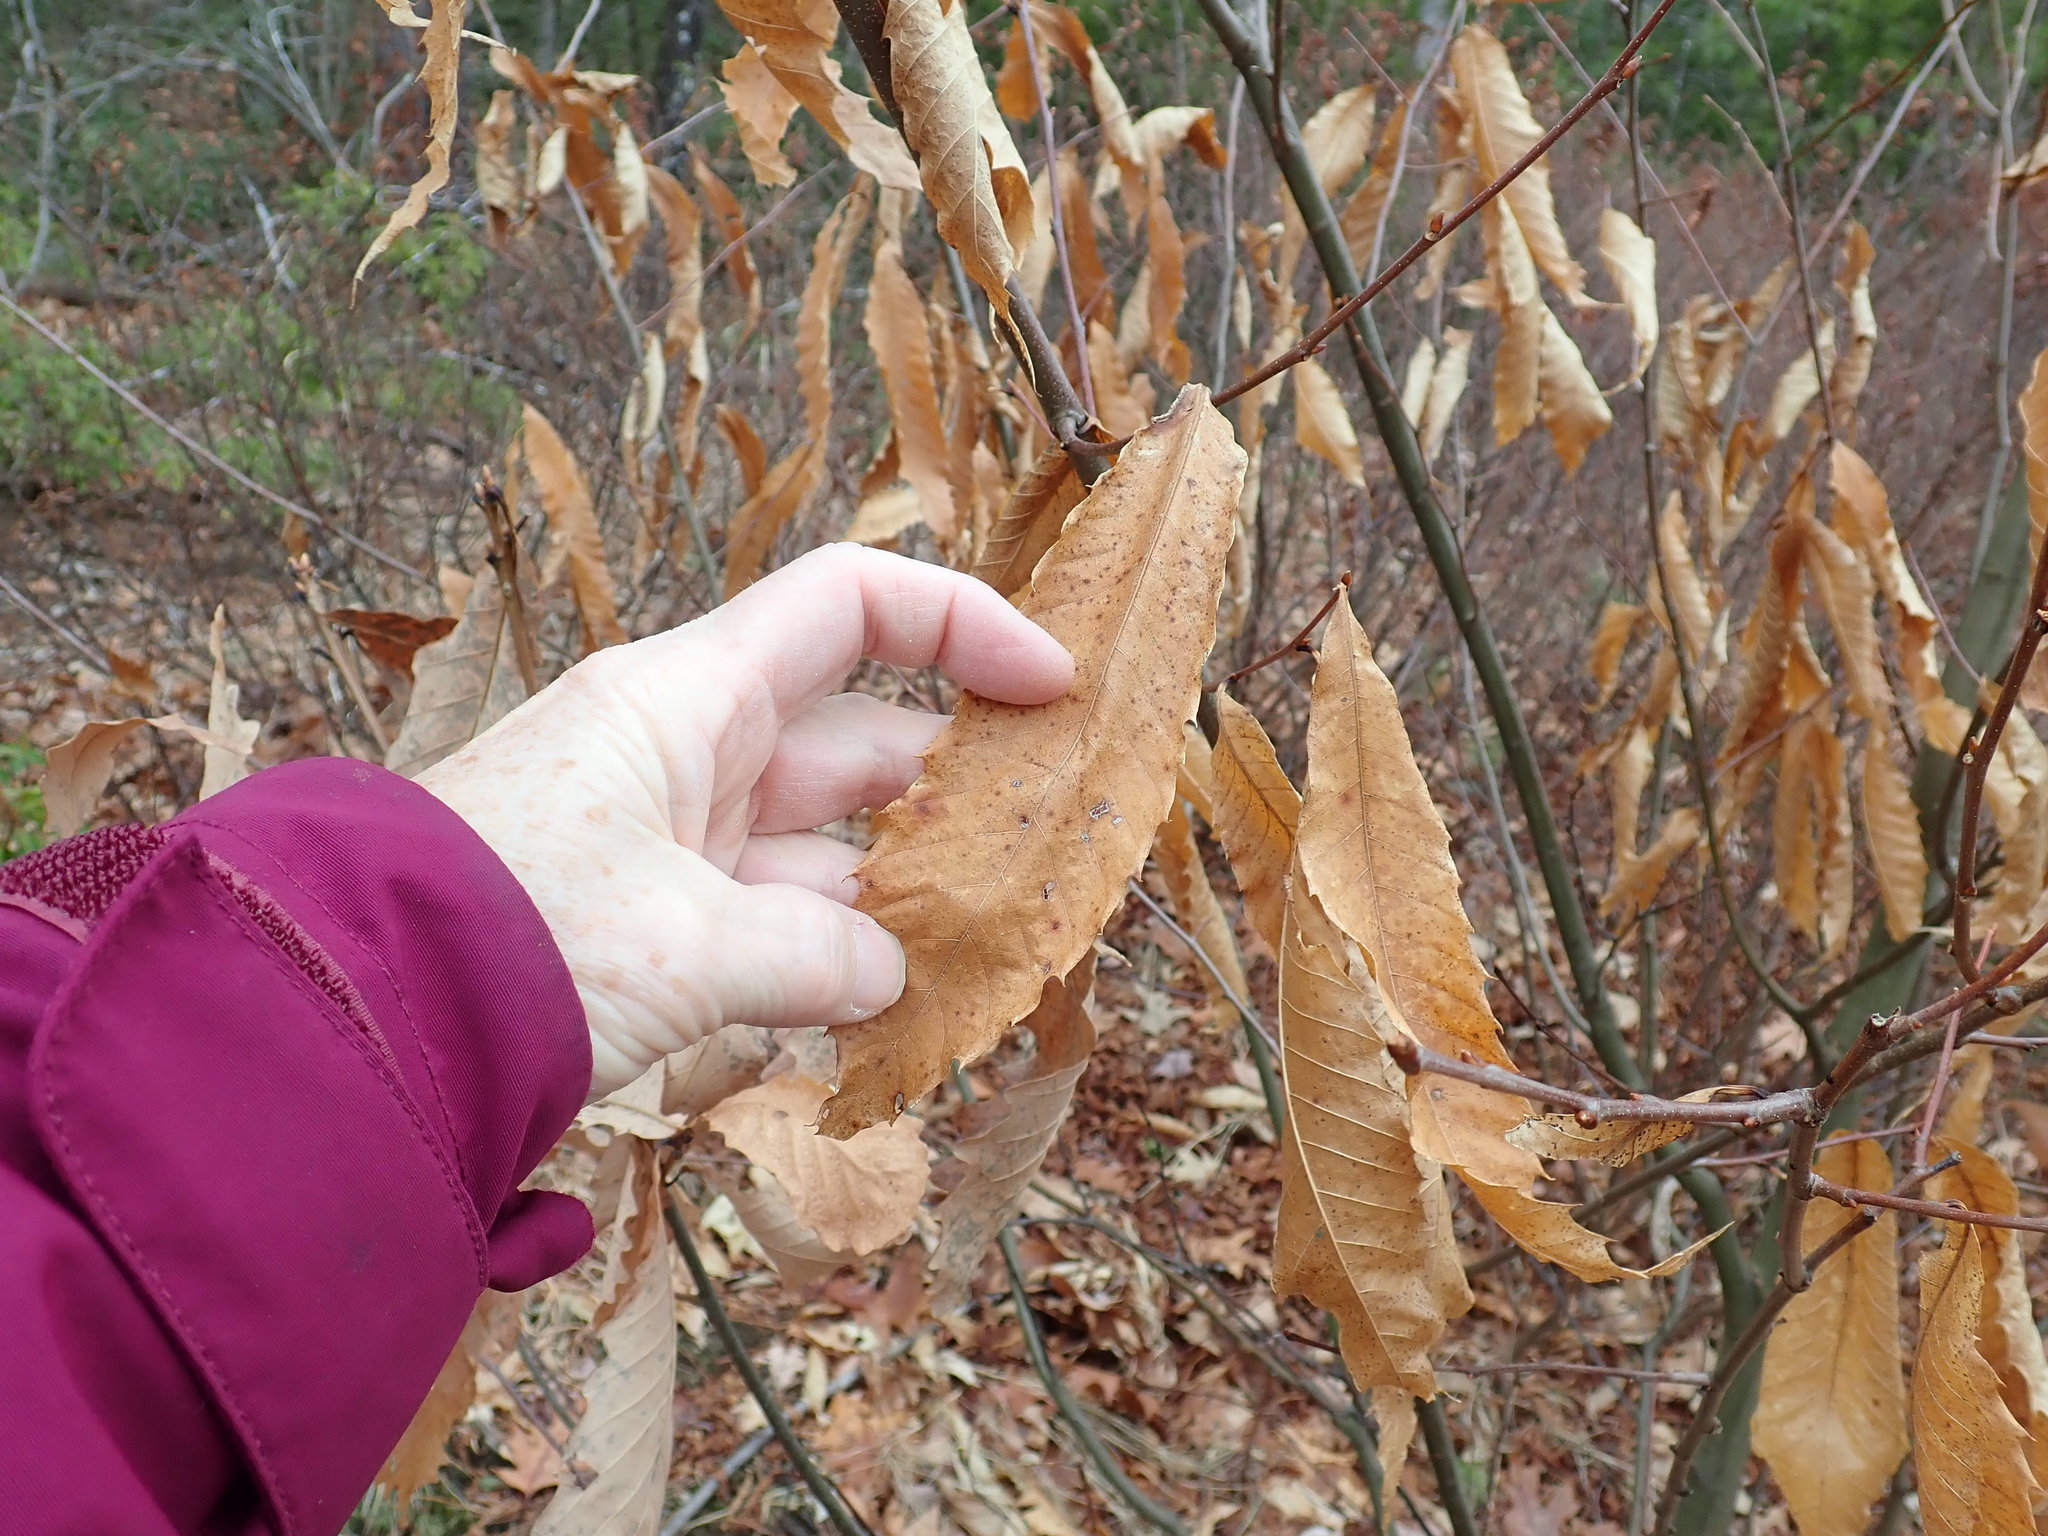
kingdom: Plantae
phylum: Tracheophyta
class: Magnoliopsida
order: Fagales
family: Fagaceae
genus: Castanea
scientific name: Castanea dentata
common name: American chestnut
